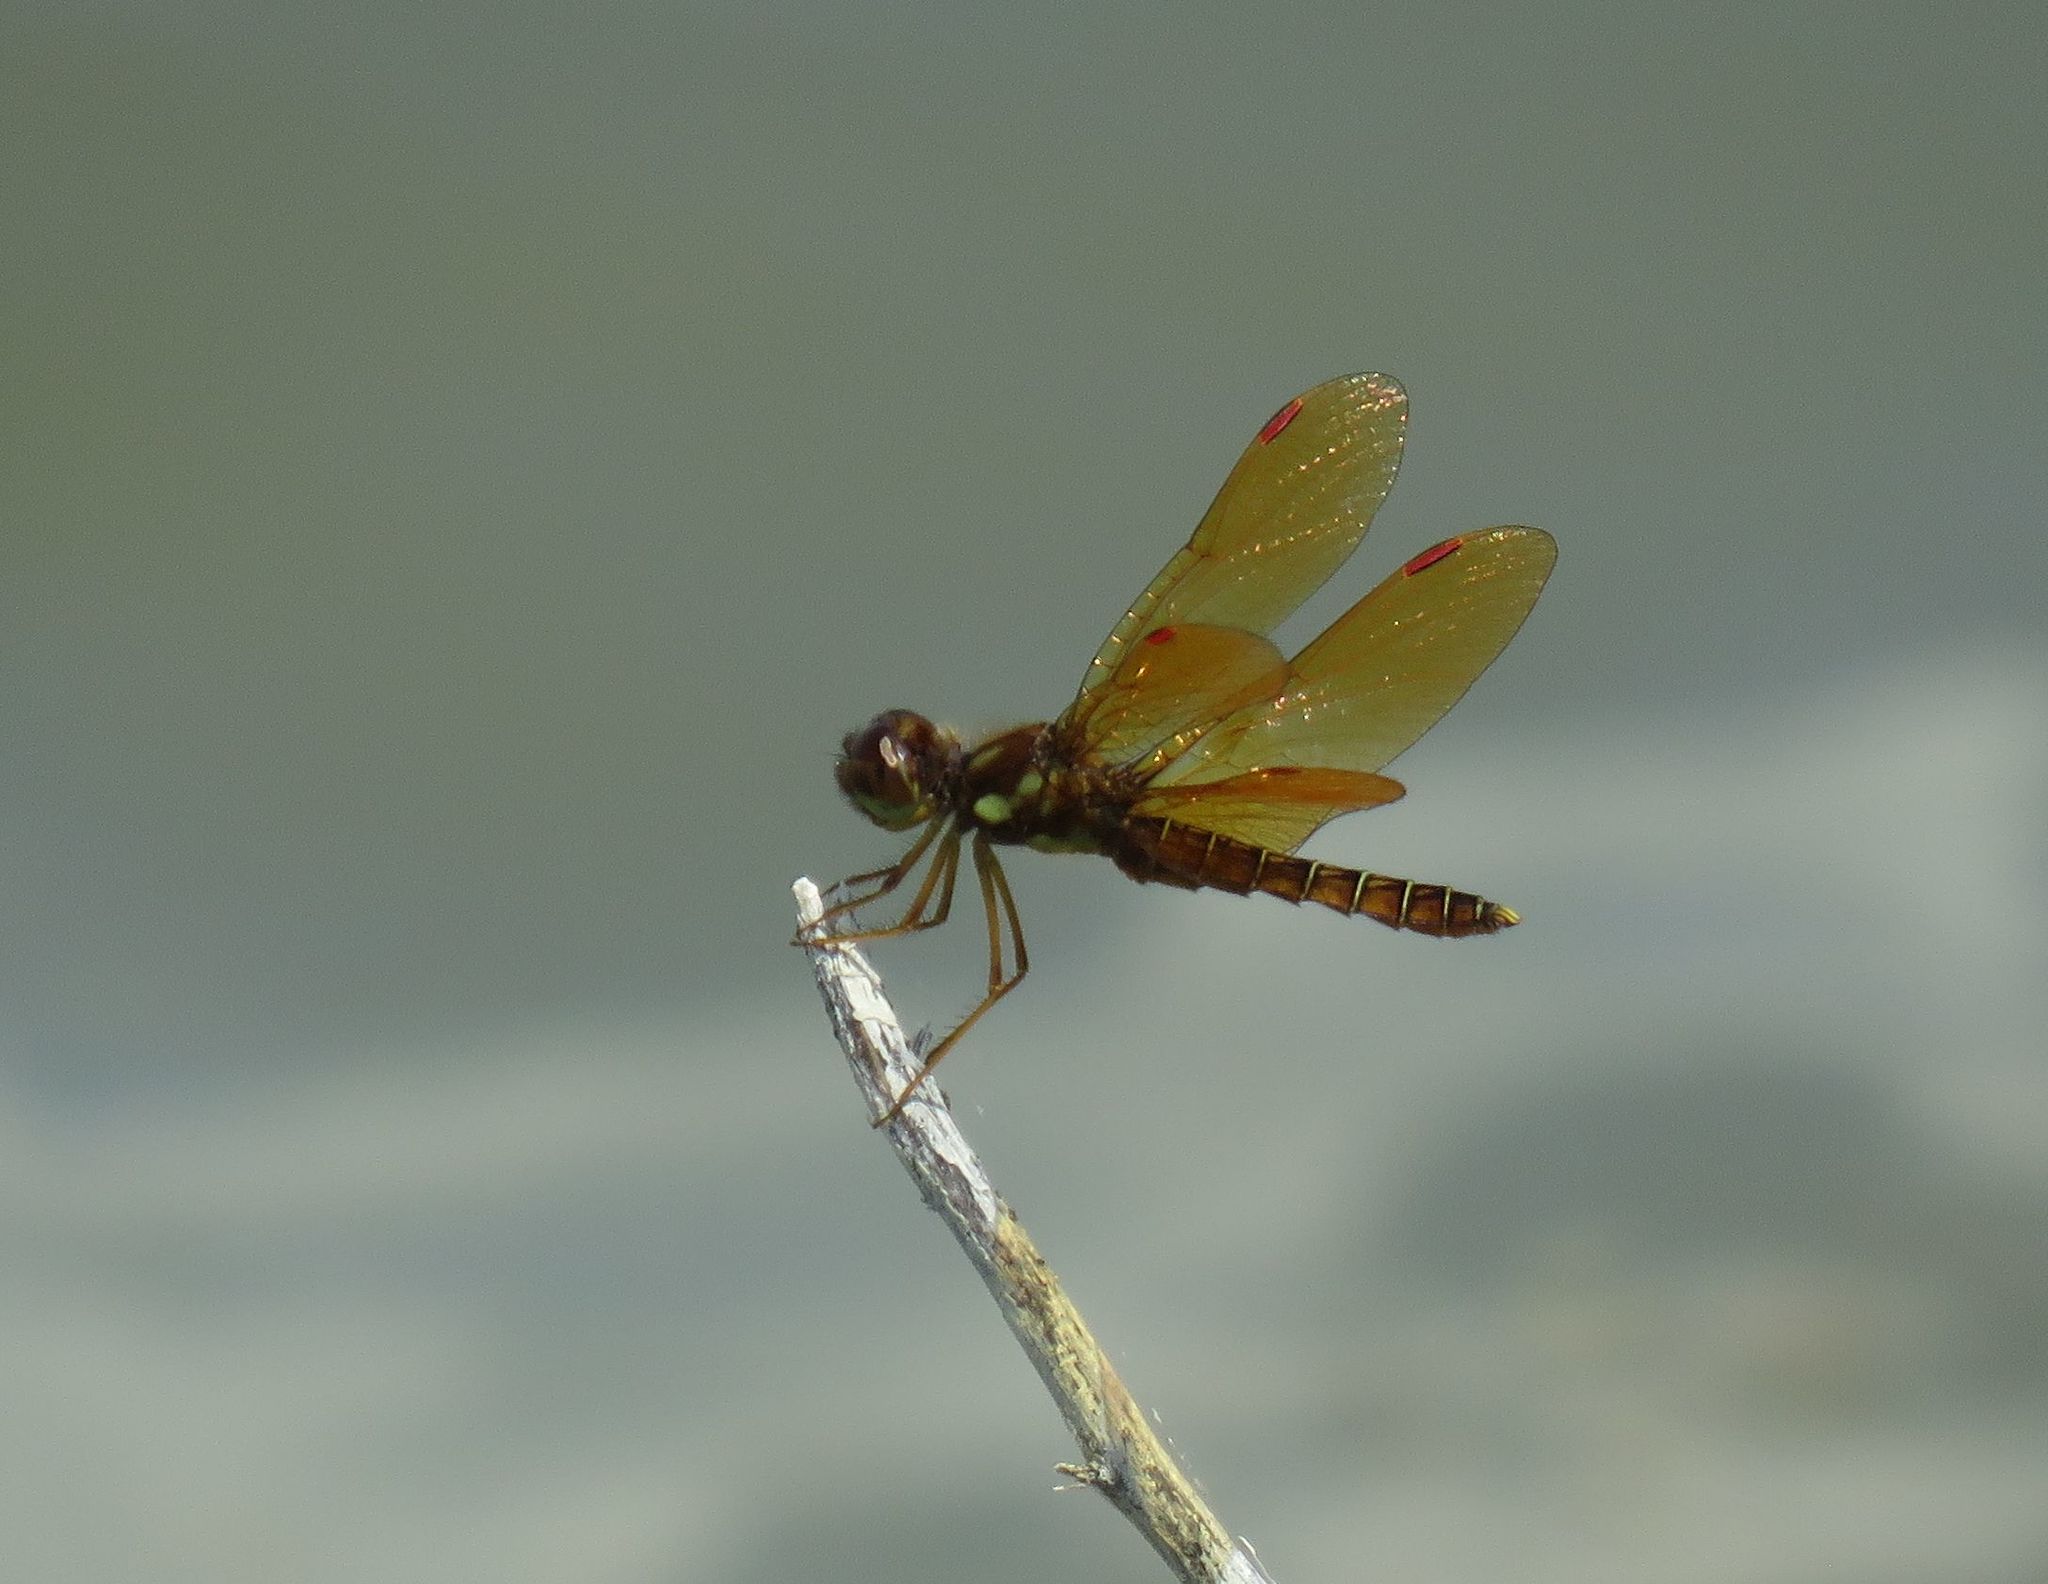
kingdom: Animalia
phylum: Arthropoda
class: Insecta
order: Odonata
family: Libellulidae
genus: Perithemis
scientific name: Perithemis tenera
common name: Eastern amberwing
